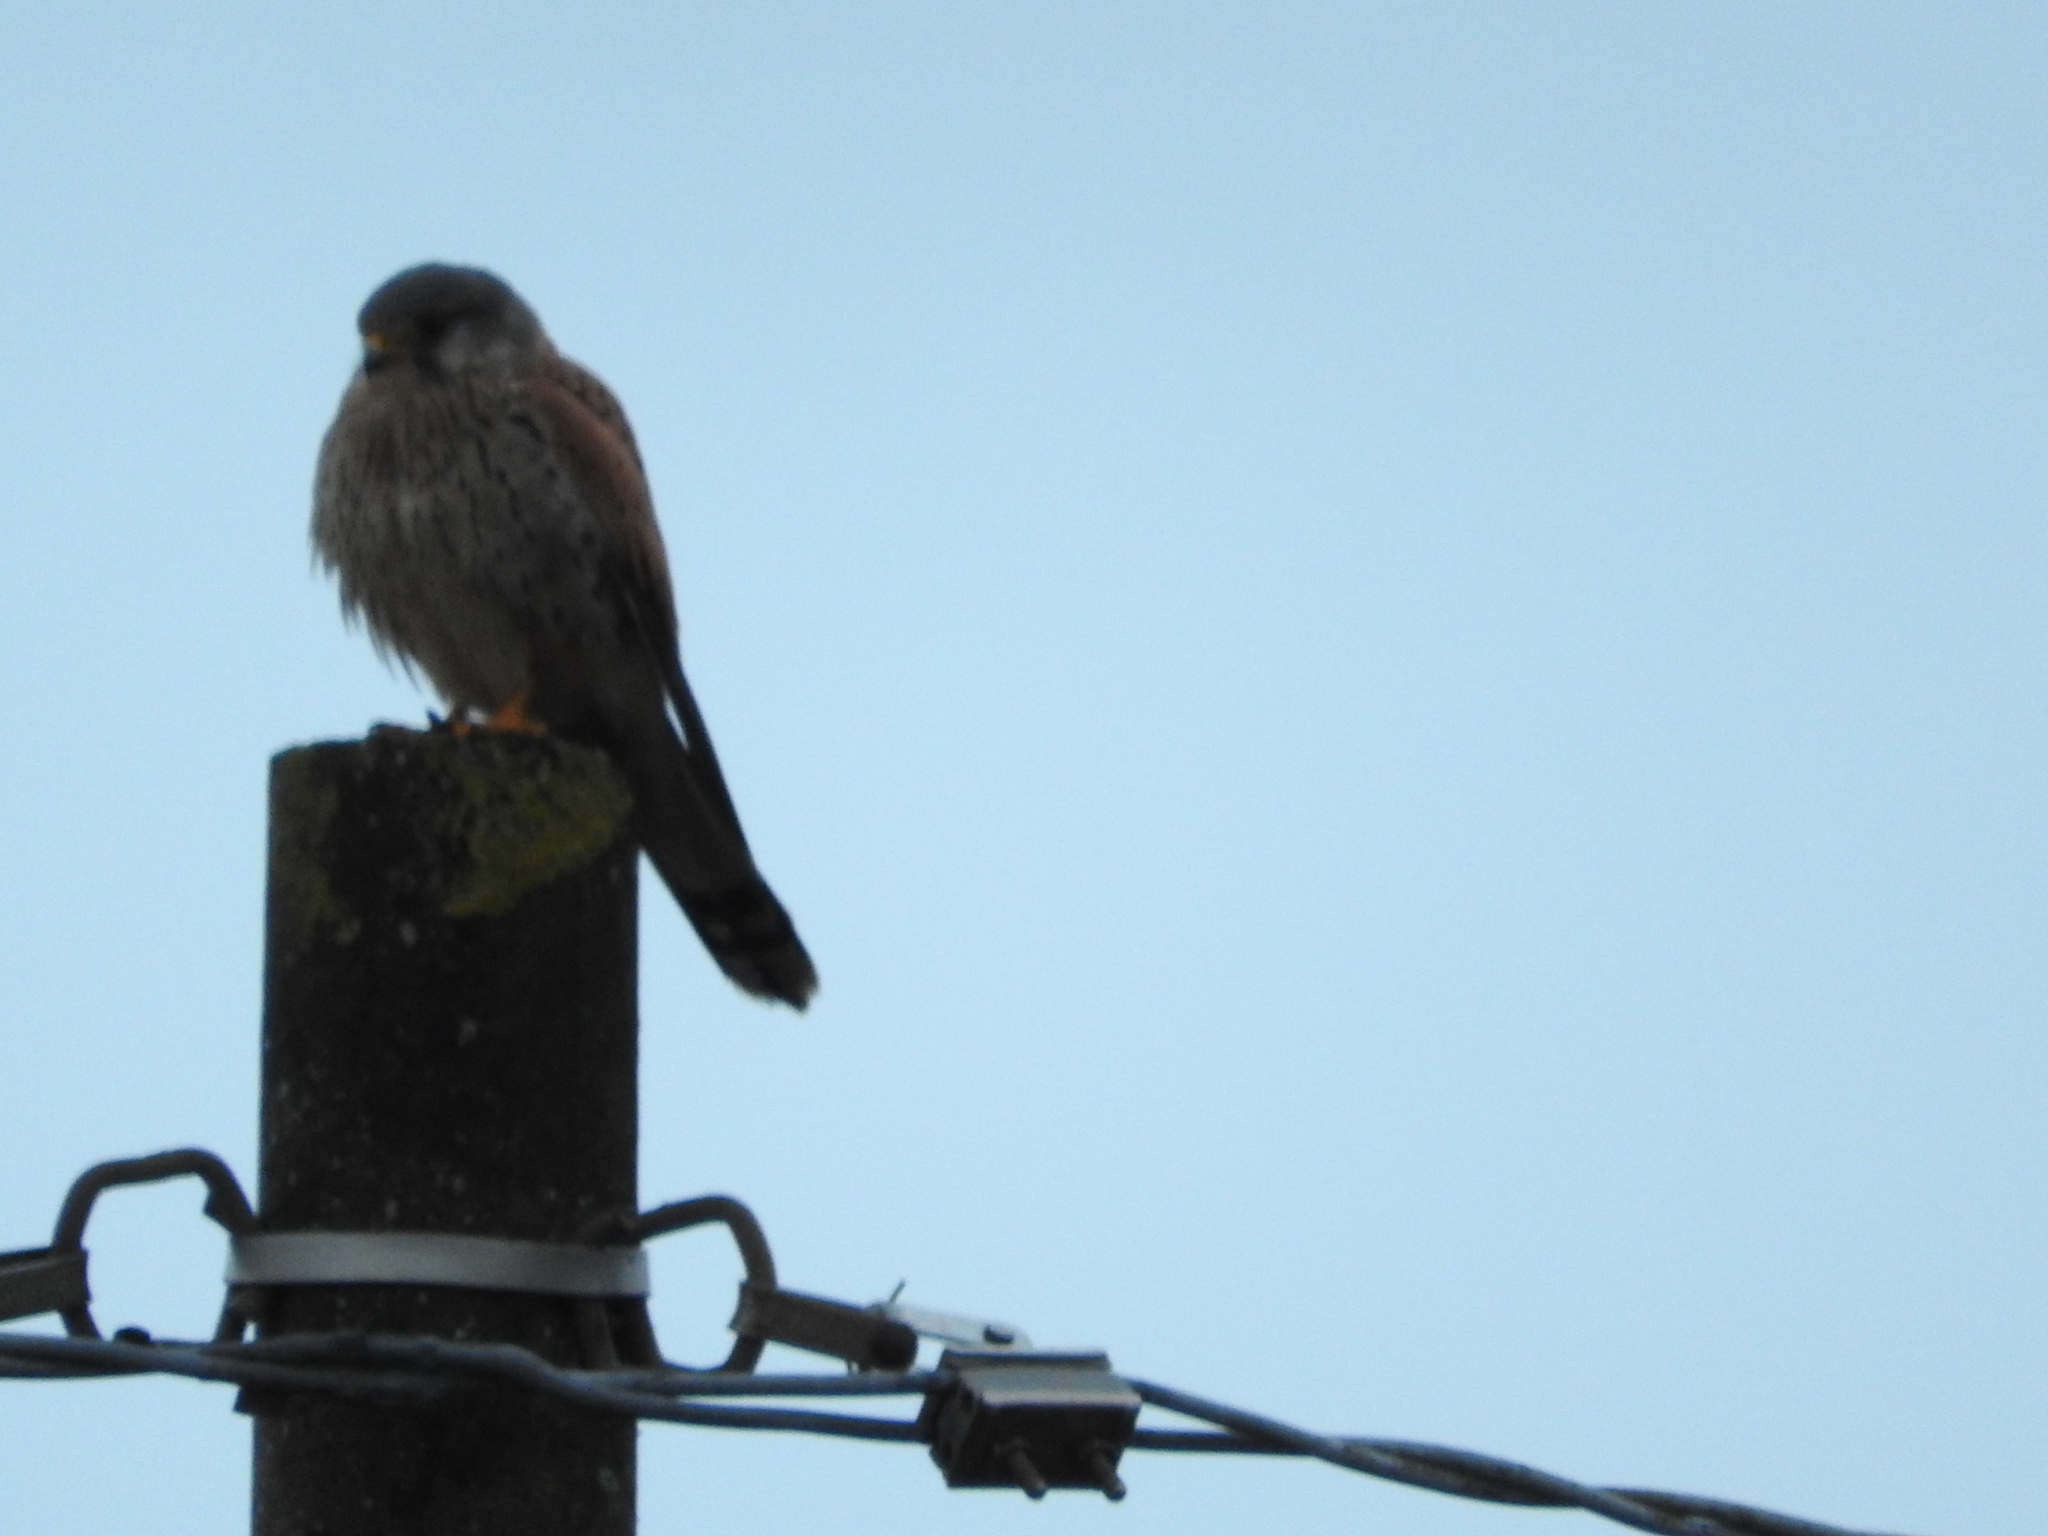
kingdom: Animalia
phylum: Chordata
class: Aves
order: Falconiformes
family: Falconidae
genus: Falco
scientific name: Falco tinnunculus
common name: Common kestrel
